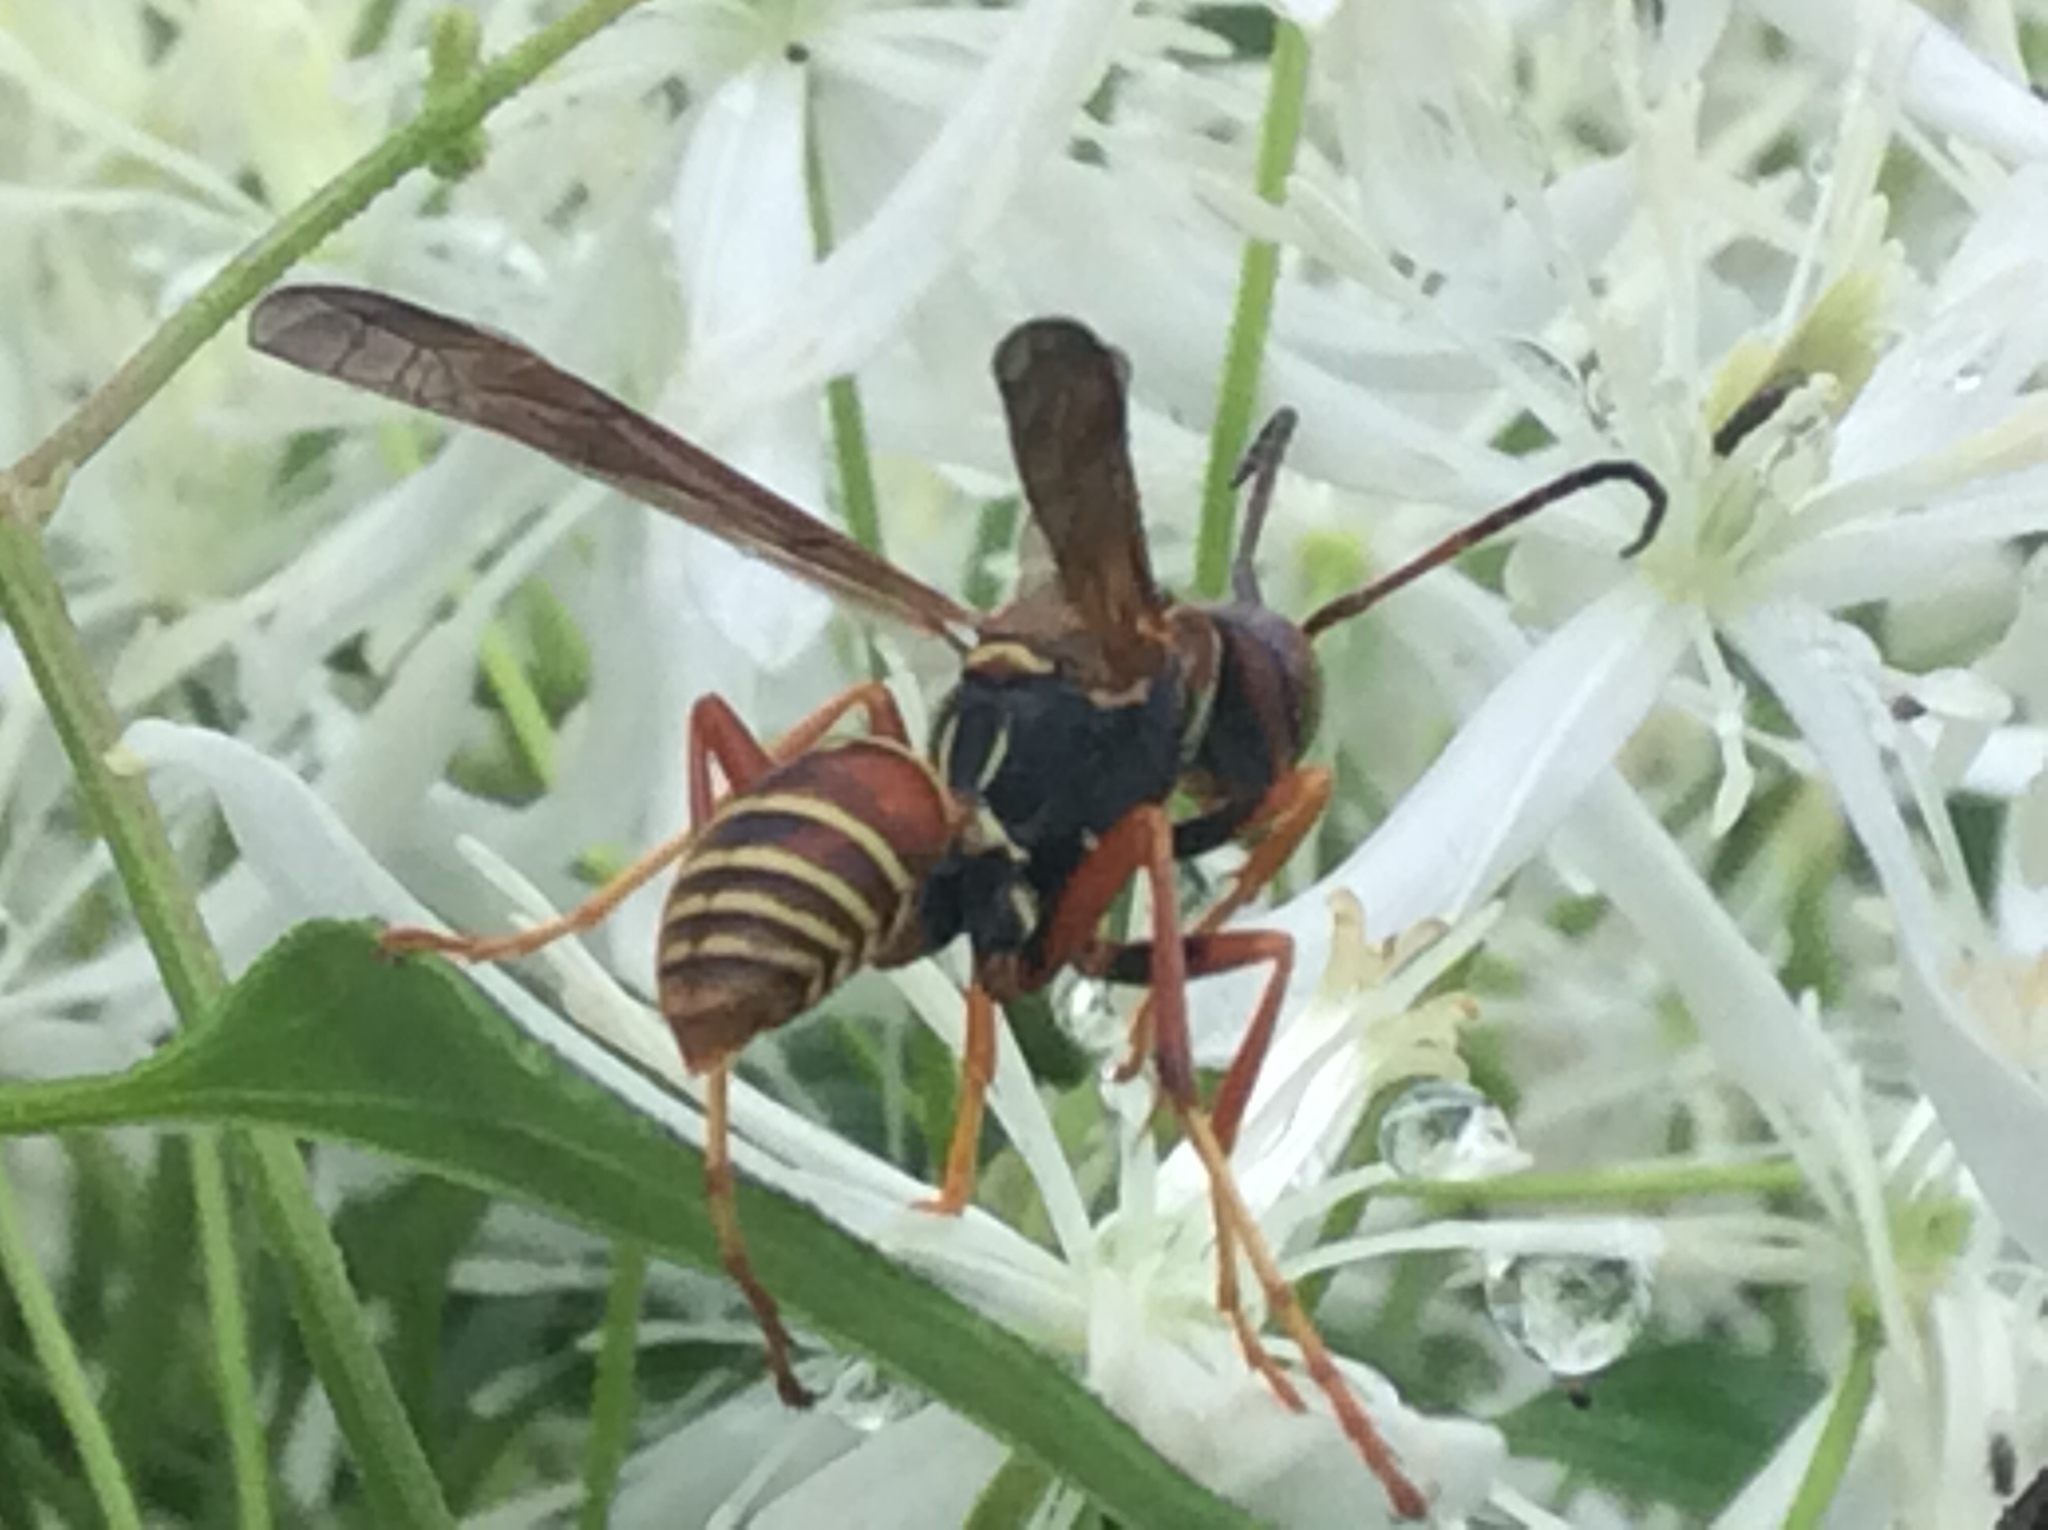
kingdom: Animalia
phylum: Arthropoda
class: Insecta
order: Hymenoptera
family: Eumenidae
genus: Polistes
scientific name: Polistes fuscatus
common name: Dark paper wasp
